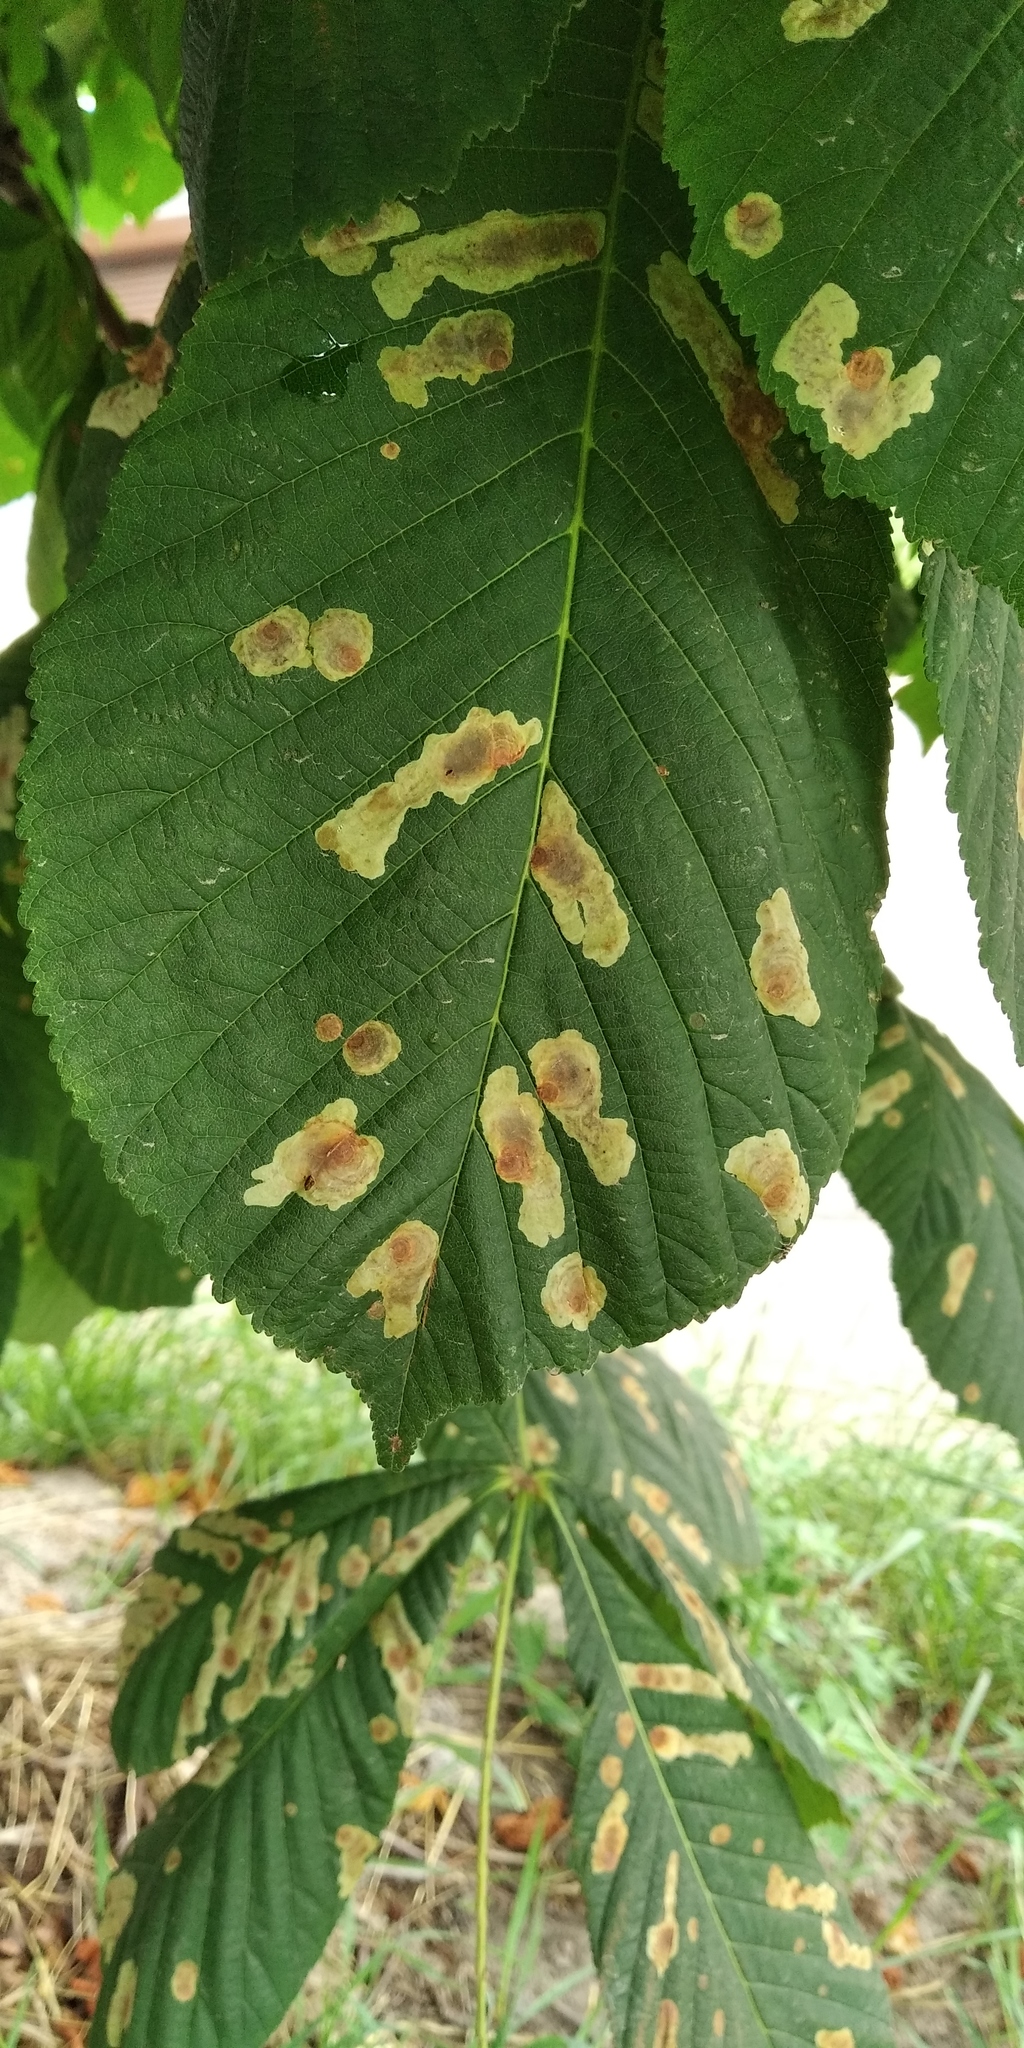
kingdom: Animalia
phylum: Arthropoda
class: Insecta
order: Lepidoptera
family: Gracillariidae
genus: Cameraria
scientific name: Cameraria ohridella
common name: Horse-chestnut leaf-miner
